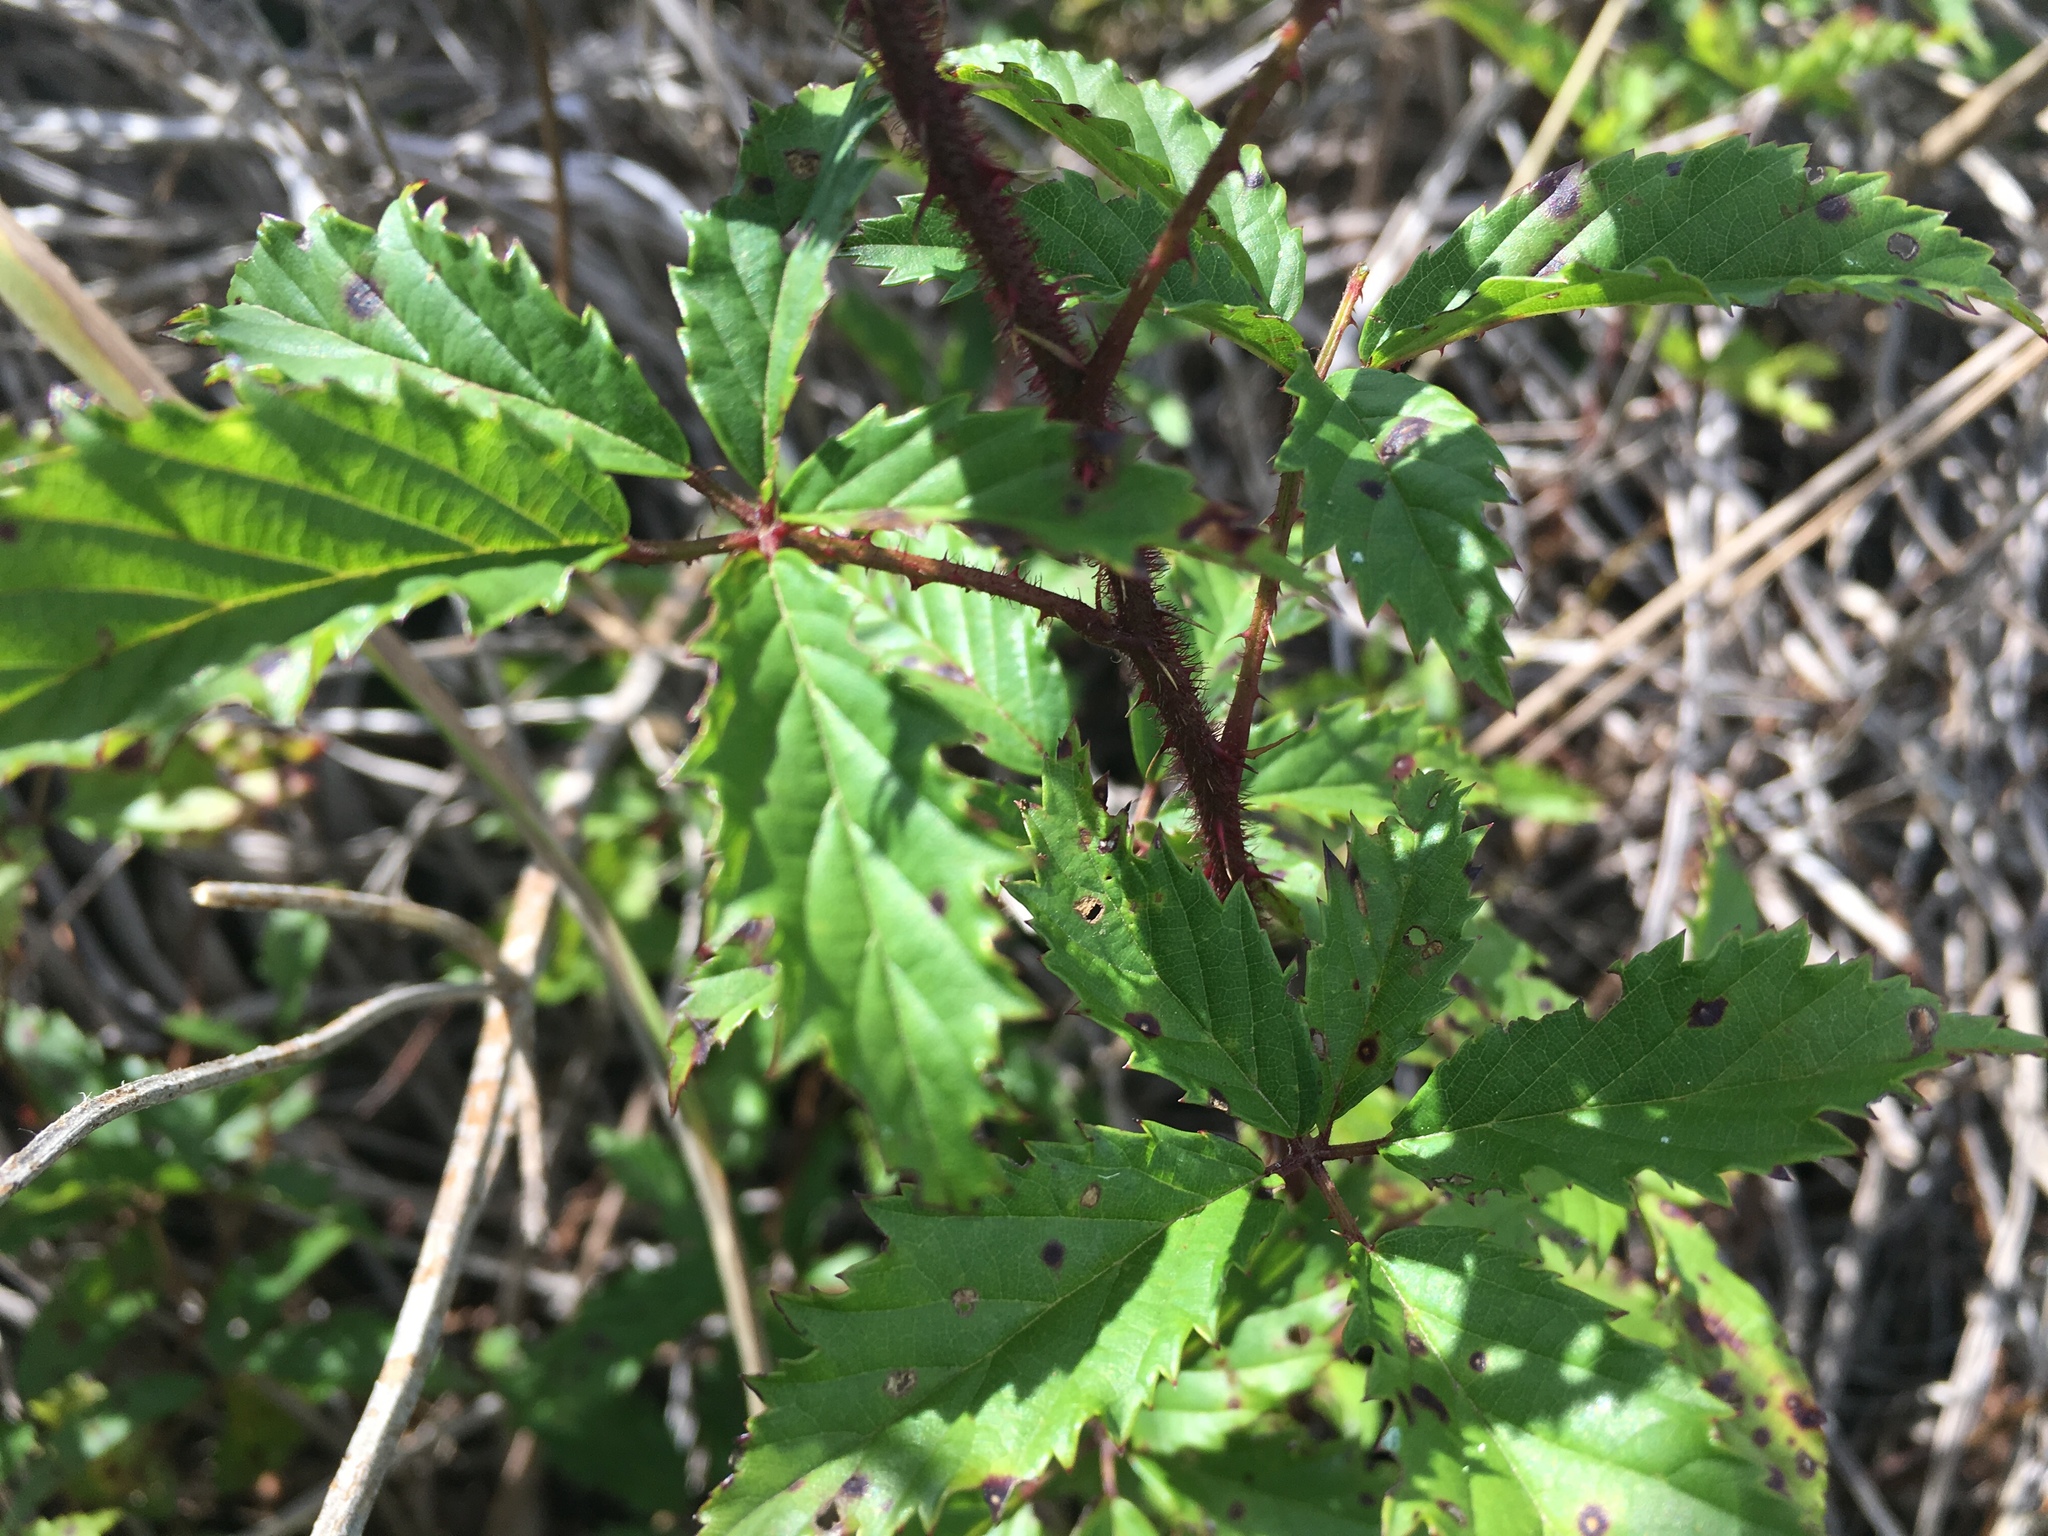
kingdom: Plantae
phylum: Tracheophyta
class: Magnoliopsida
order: Rosales
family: Rosaceae
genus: Rubus
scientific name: Rubus pensilvanicus
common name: Pennsylvania blackberry
